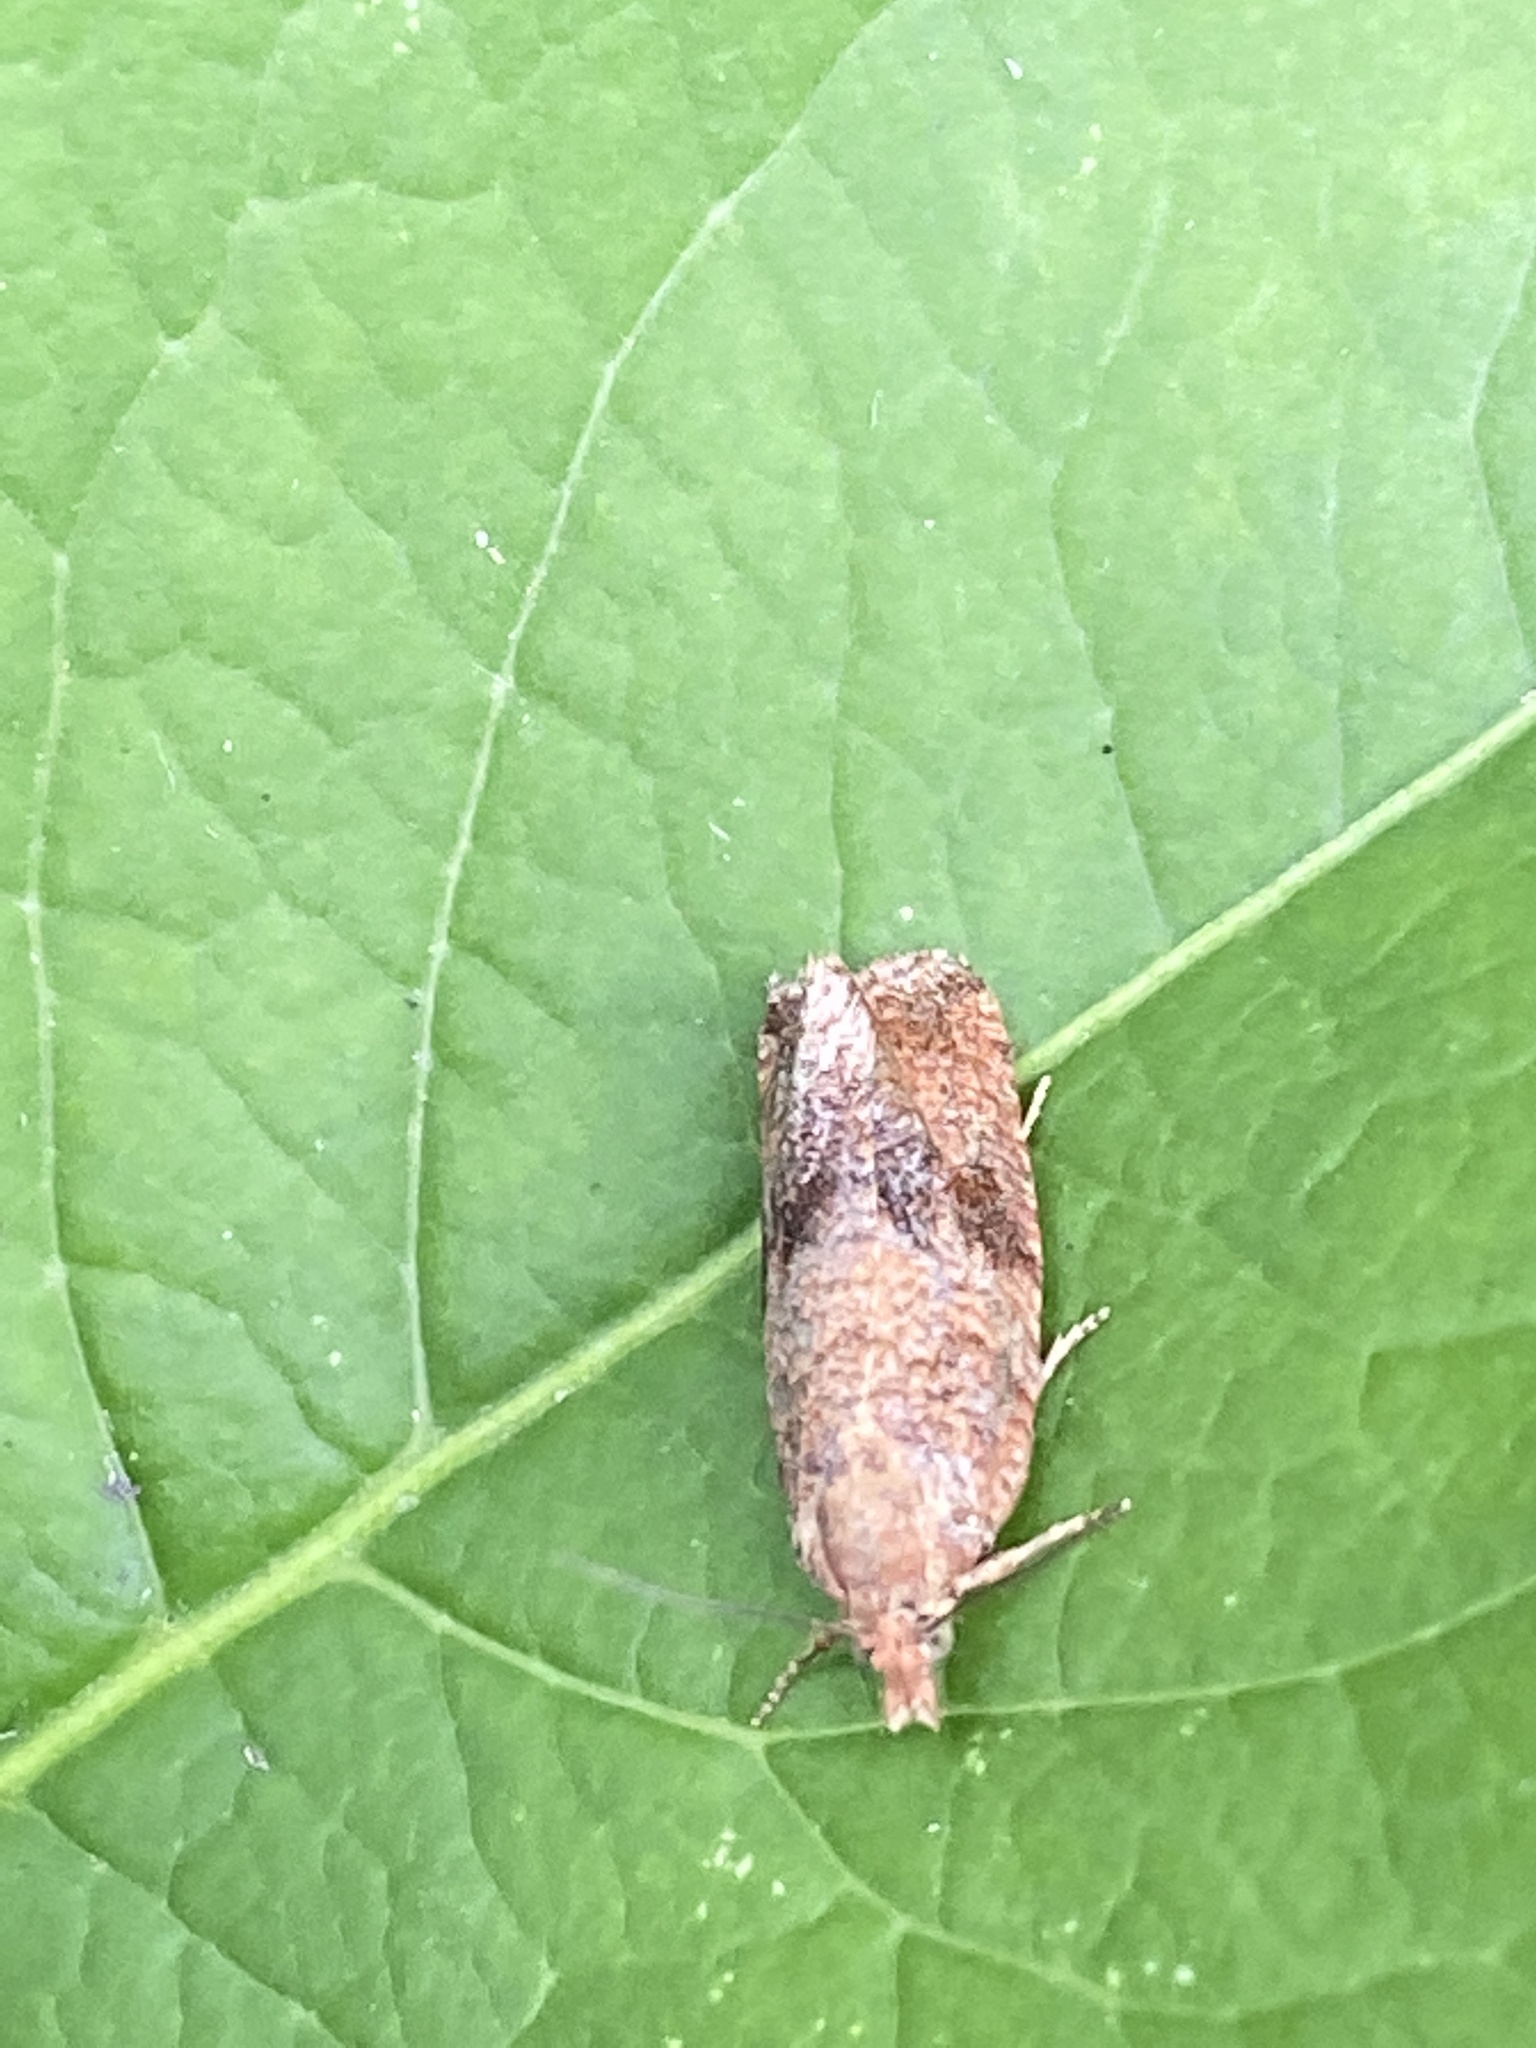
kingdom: Animalia
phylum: Arthropoda
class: Insecta
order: Lepidoptera
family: Tortricidae
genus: Celypha
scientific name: Celypha striana
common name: Barred marble
